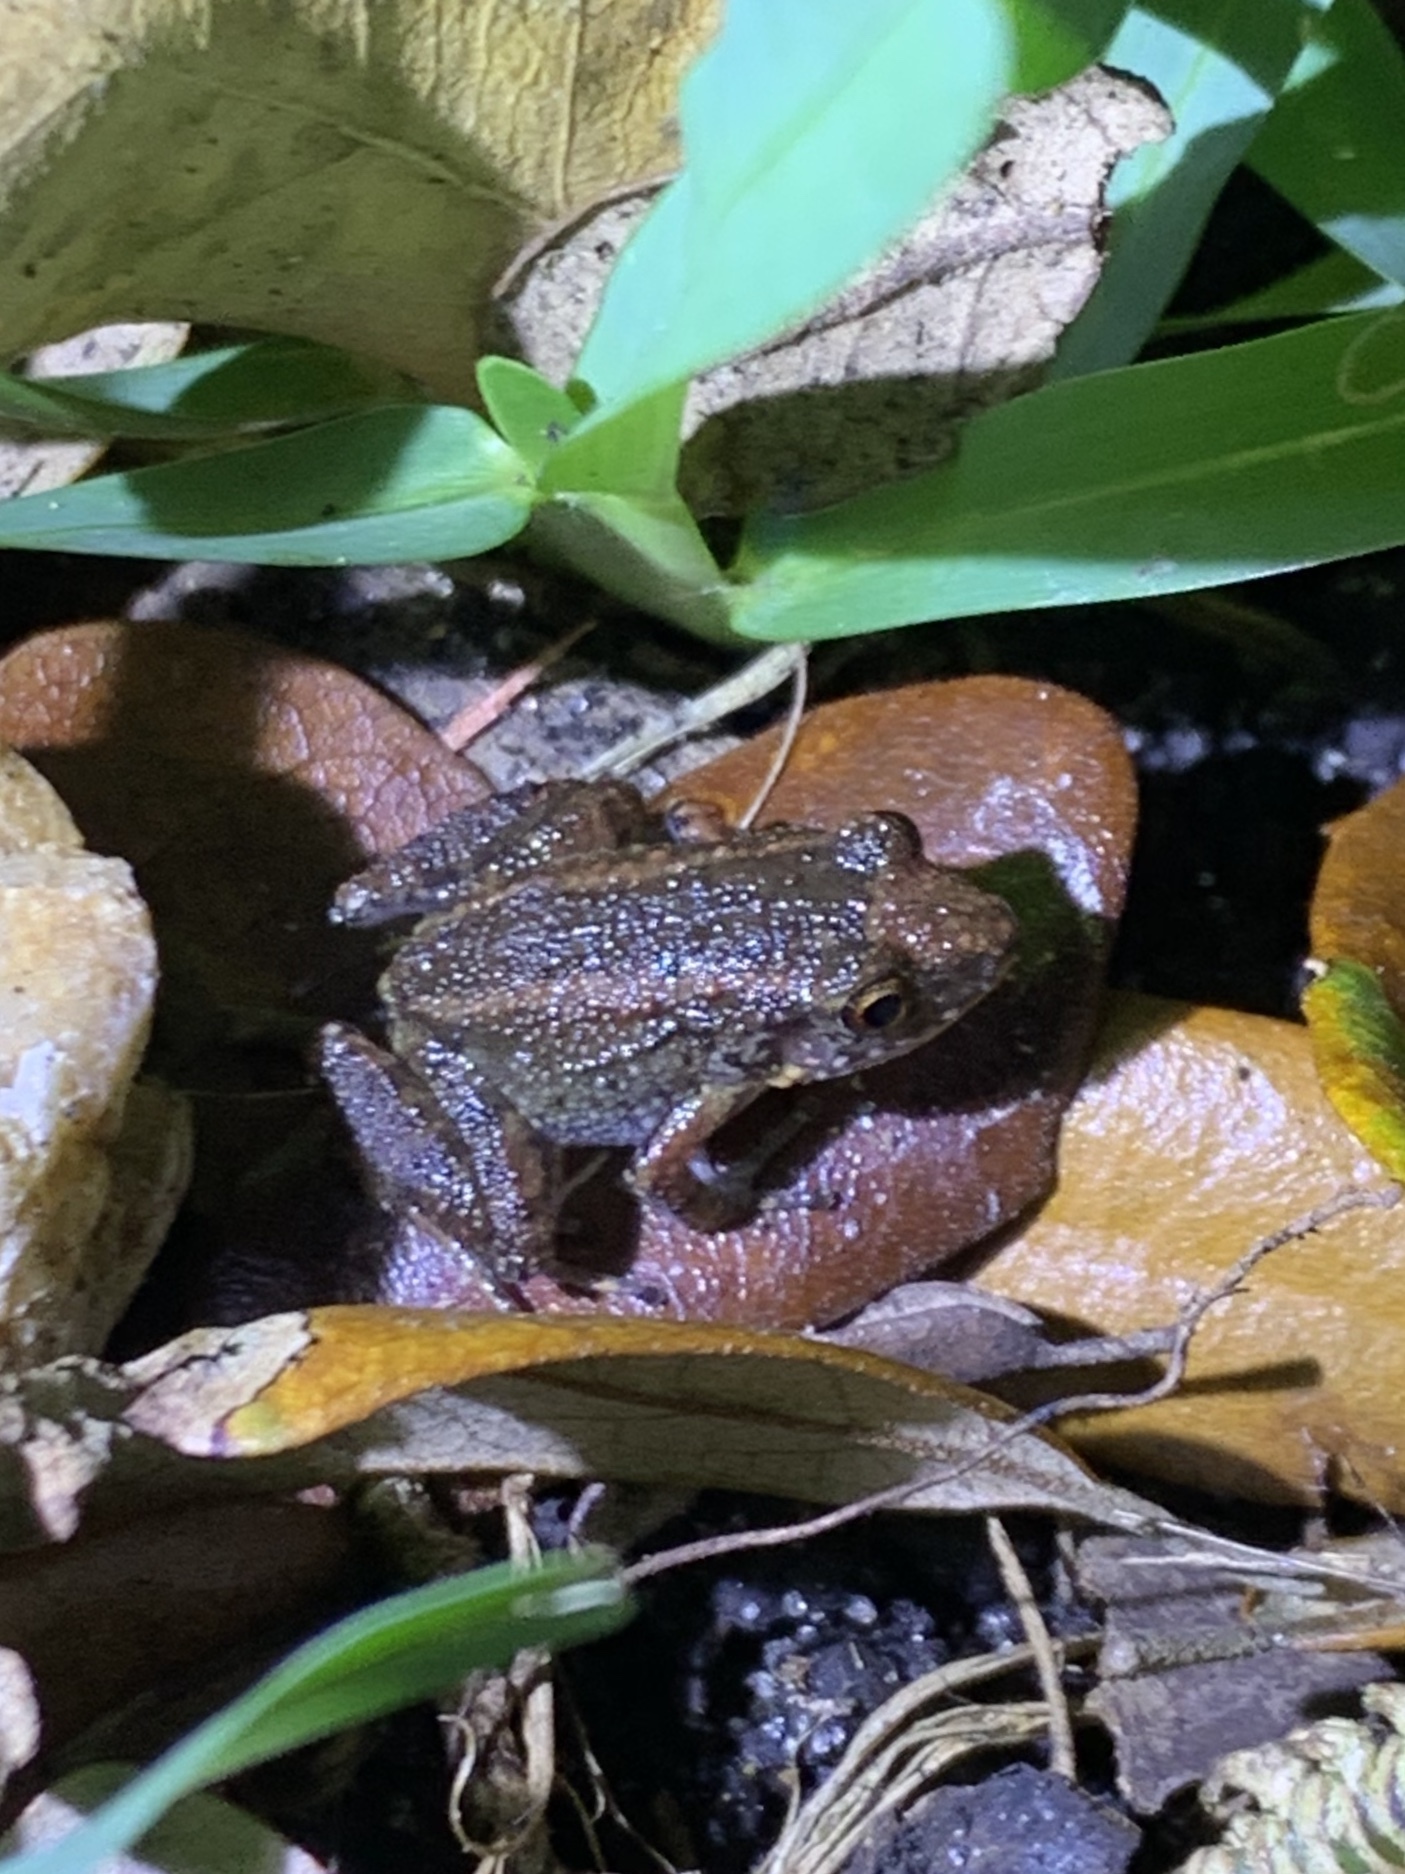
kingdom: Animalia
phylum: Chordata
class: Amphibia
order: Anura
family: Eleutherodactylidae
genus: Eleutherodactylus
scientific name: Eleutherodactylus planirostris
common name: Greenhouse frog
